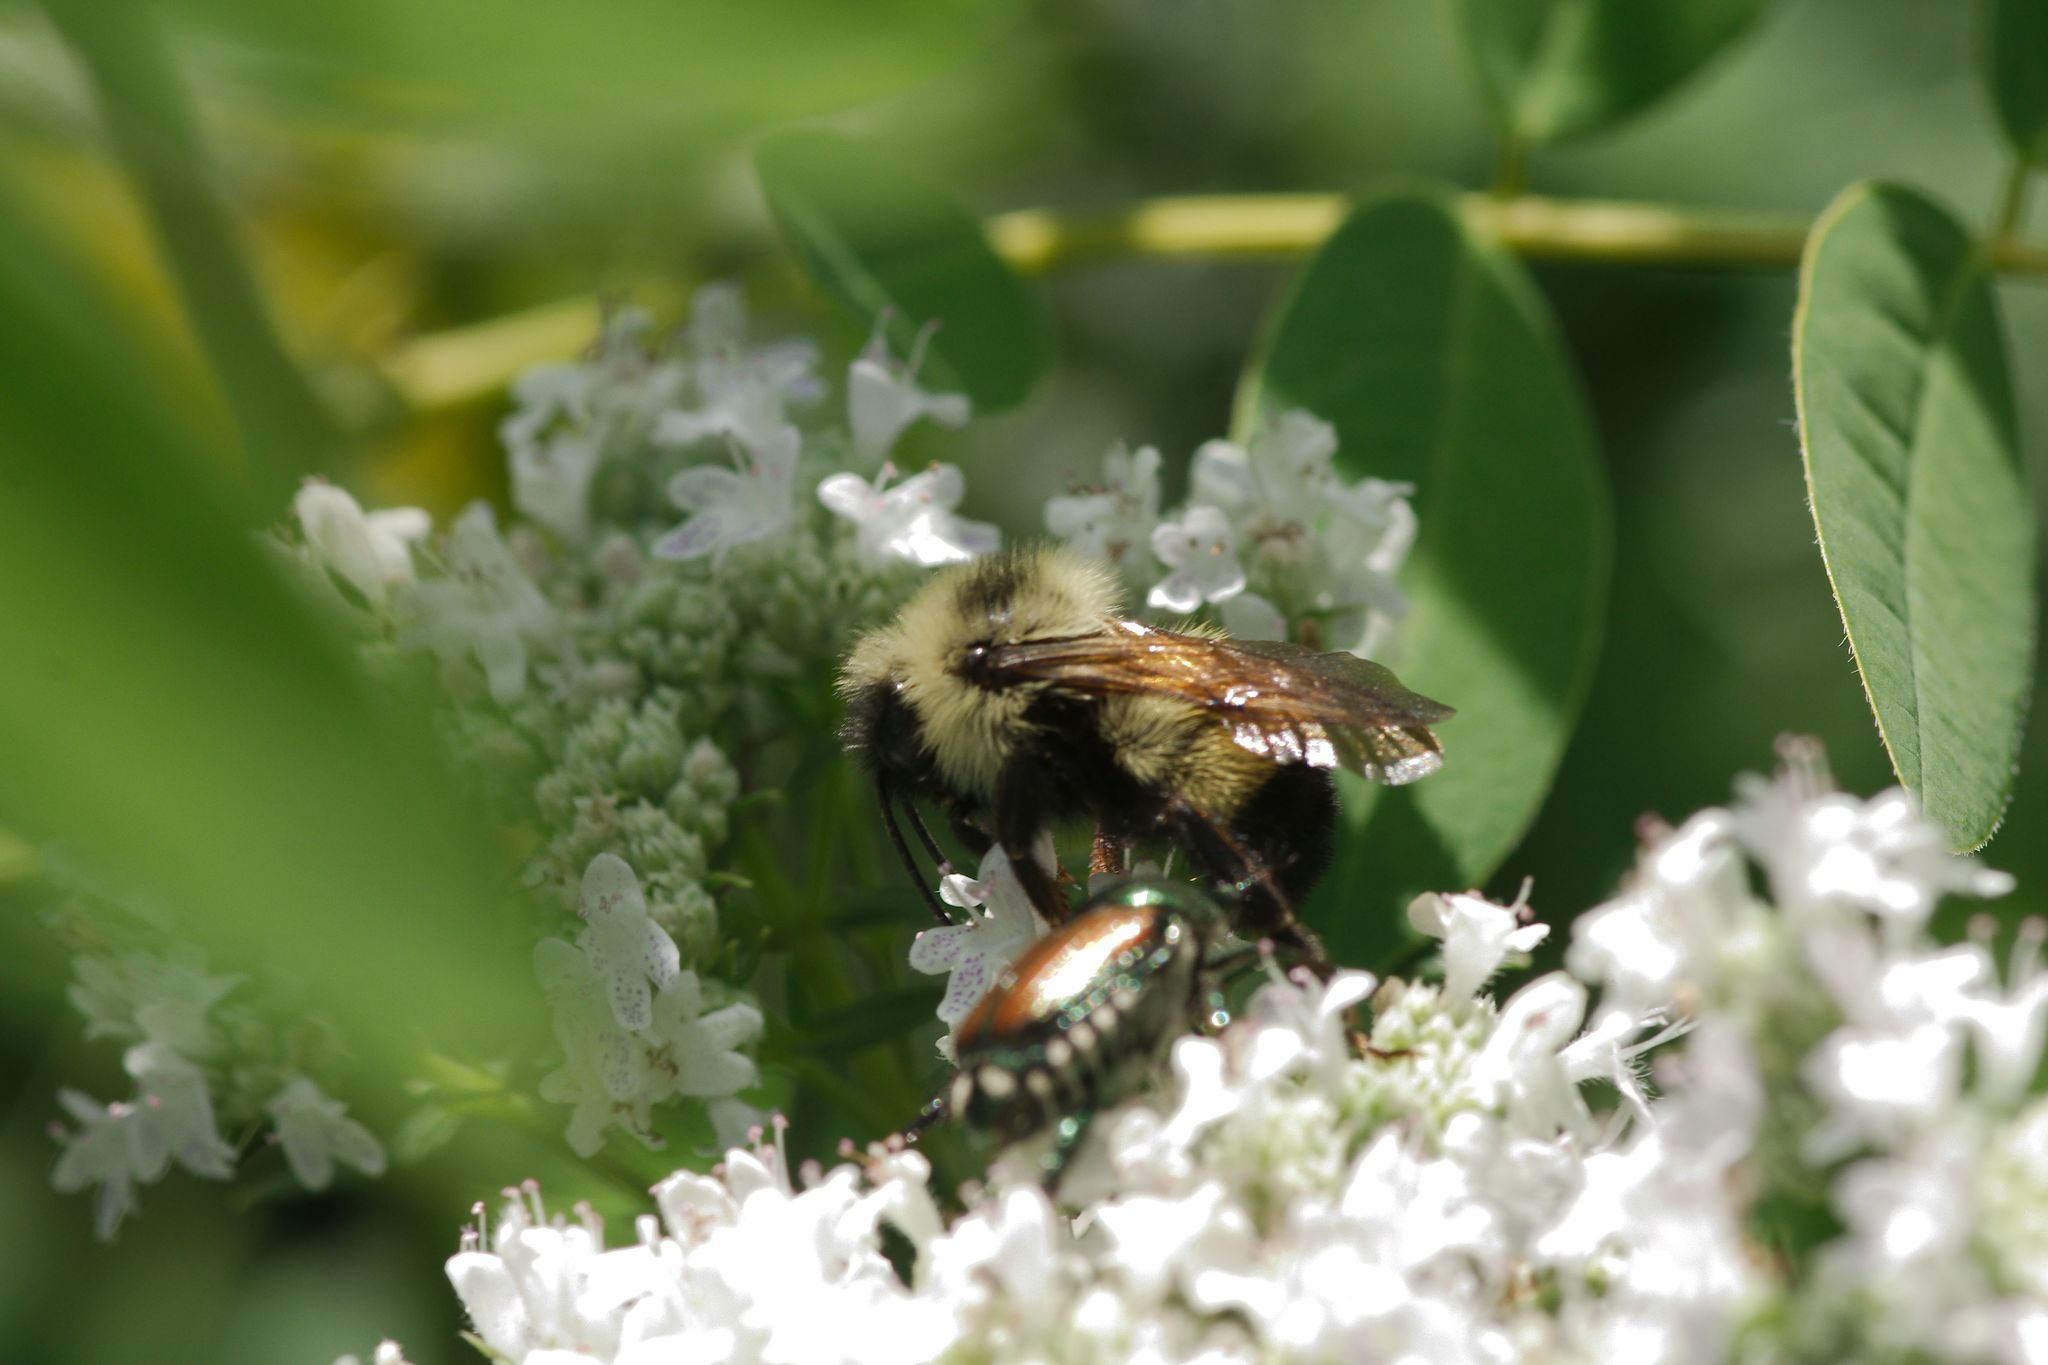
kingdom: Animalia
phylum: Arthropoda
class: Insecta
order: Hymenoptera
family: Apidae
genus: Bombus
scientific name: Bombus vagans
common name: Half-black bumble bee
